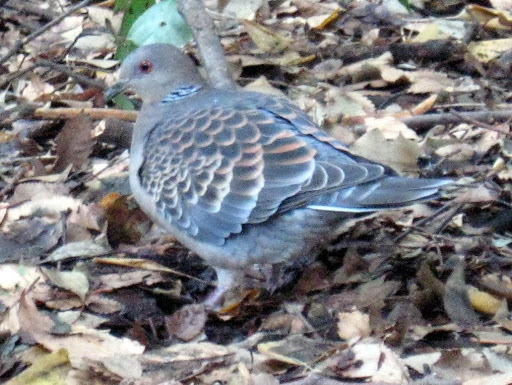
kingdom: Animalia
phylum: Chordata
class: Aves
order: Columbiformes
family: Columbidae
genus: Streptopelia
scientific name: Streptopelia orientalis
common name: Oriental turtle dove
